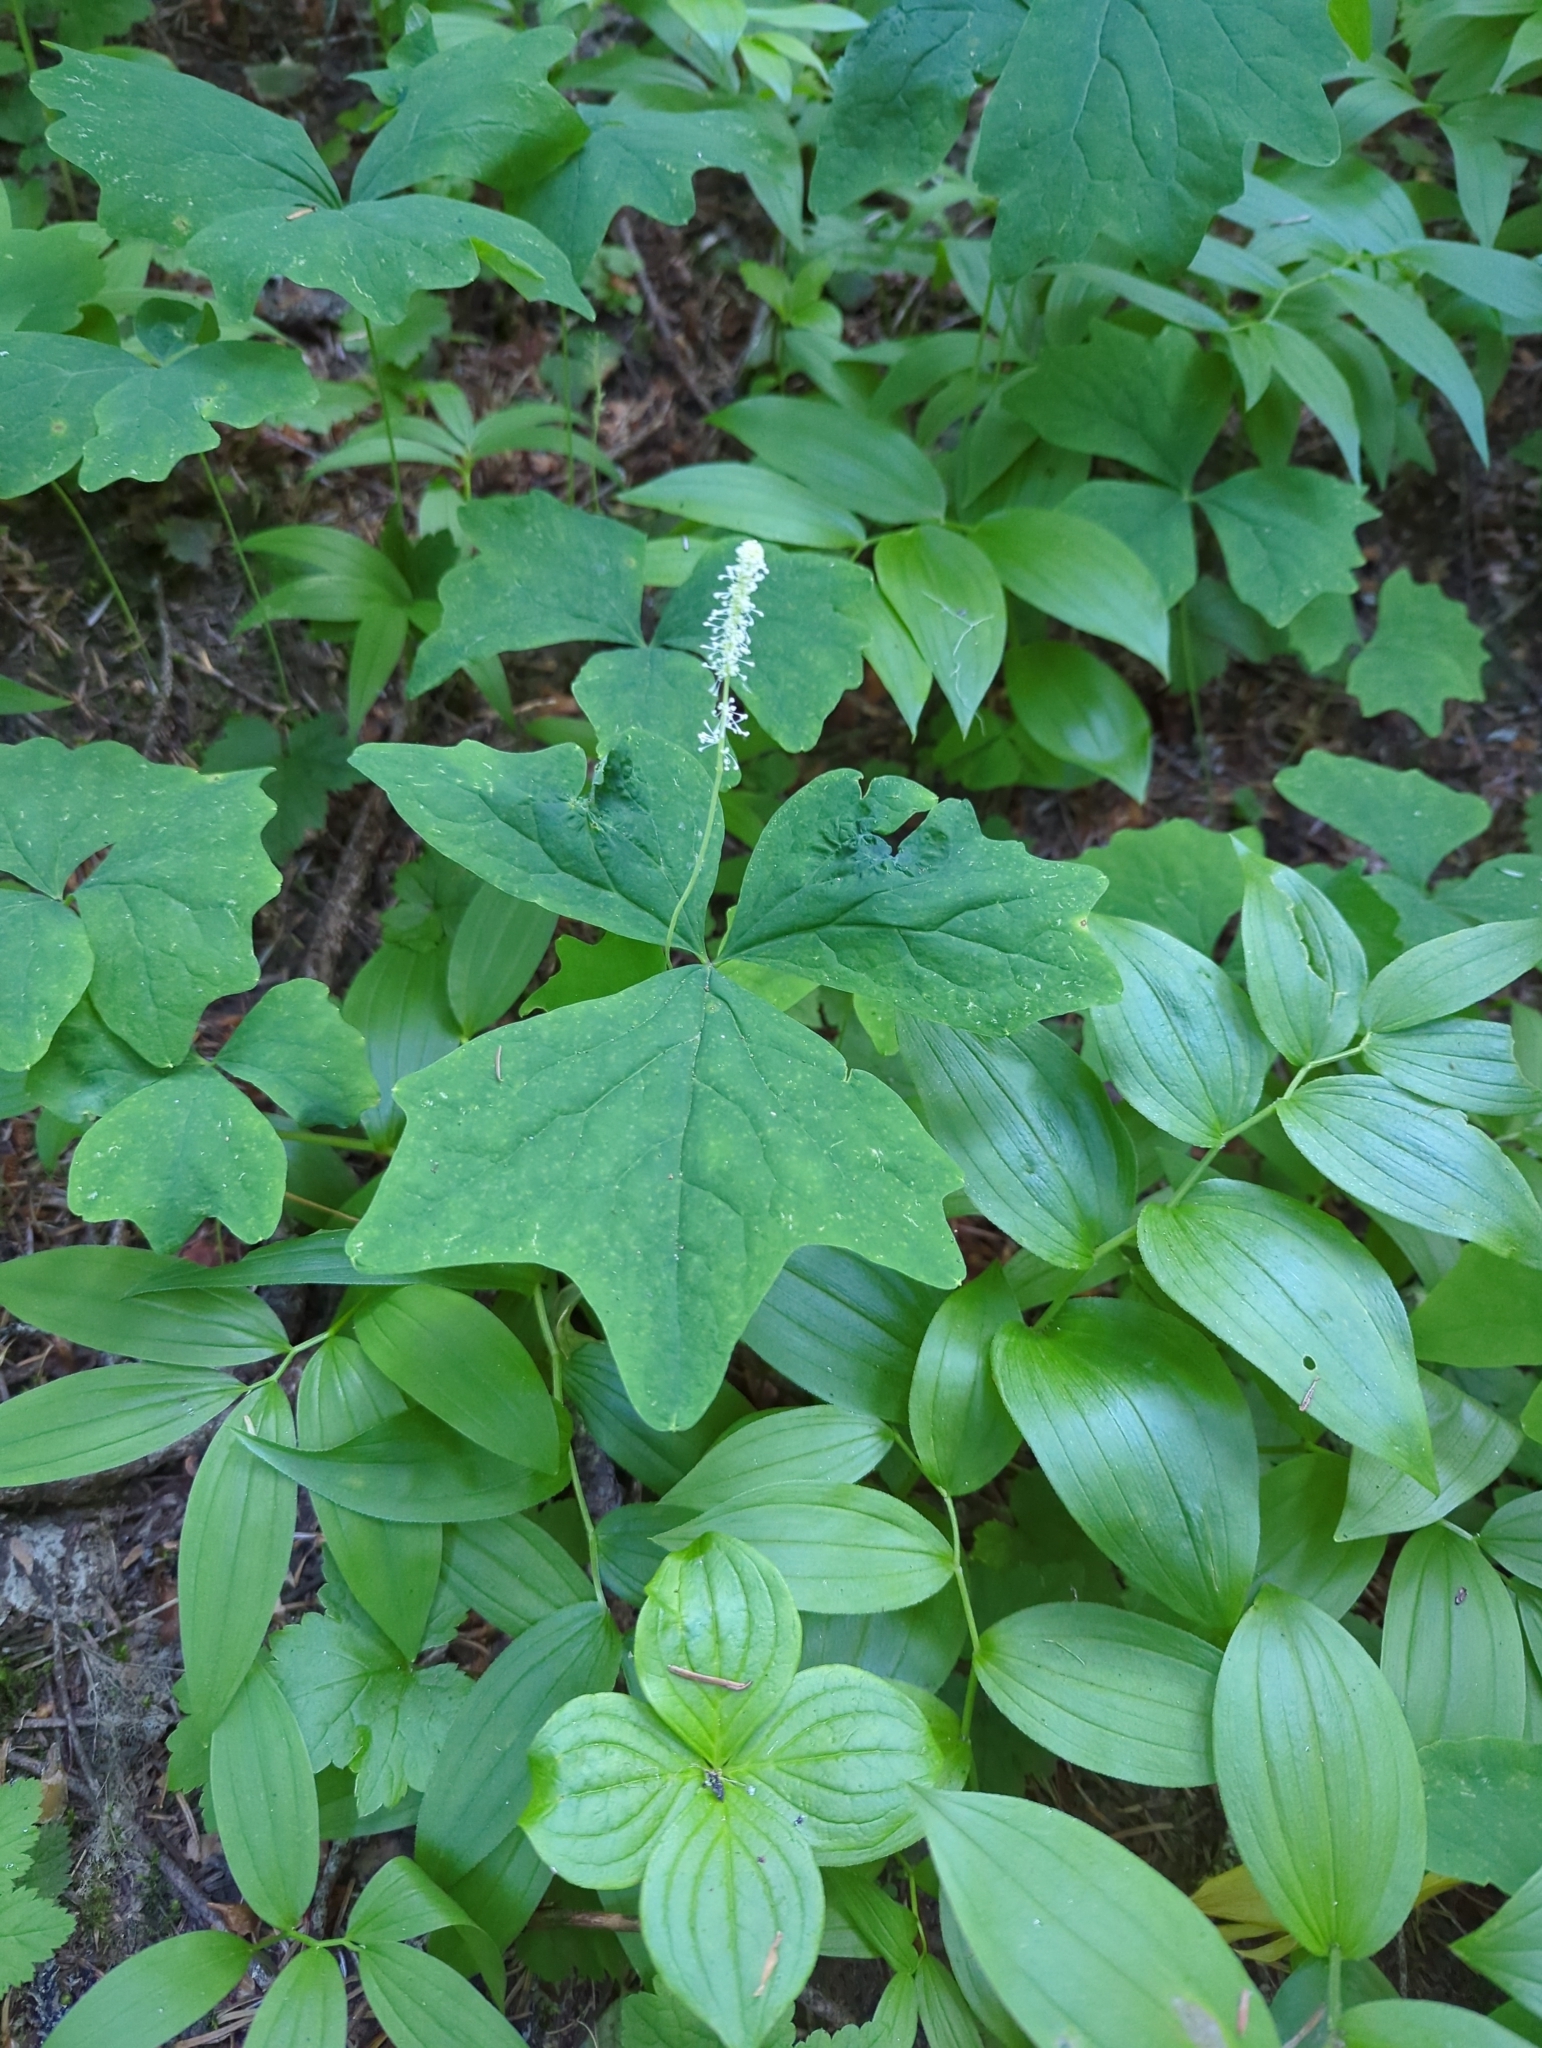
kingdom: Plantae
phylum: Tracheophyta
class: Magnoliopsida
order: Ranunculales
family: Berberidaceae
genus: Achlys
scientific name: Achlys triphylla
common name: Vanilla-leaf
